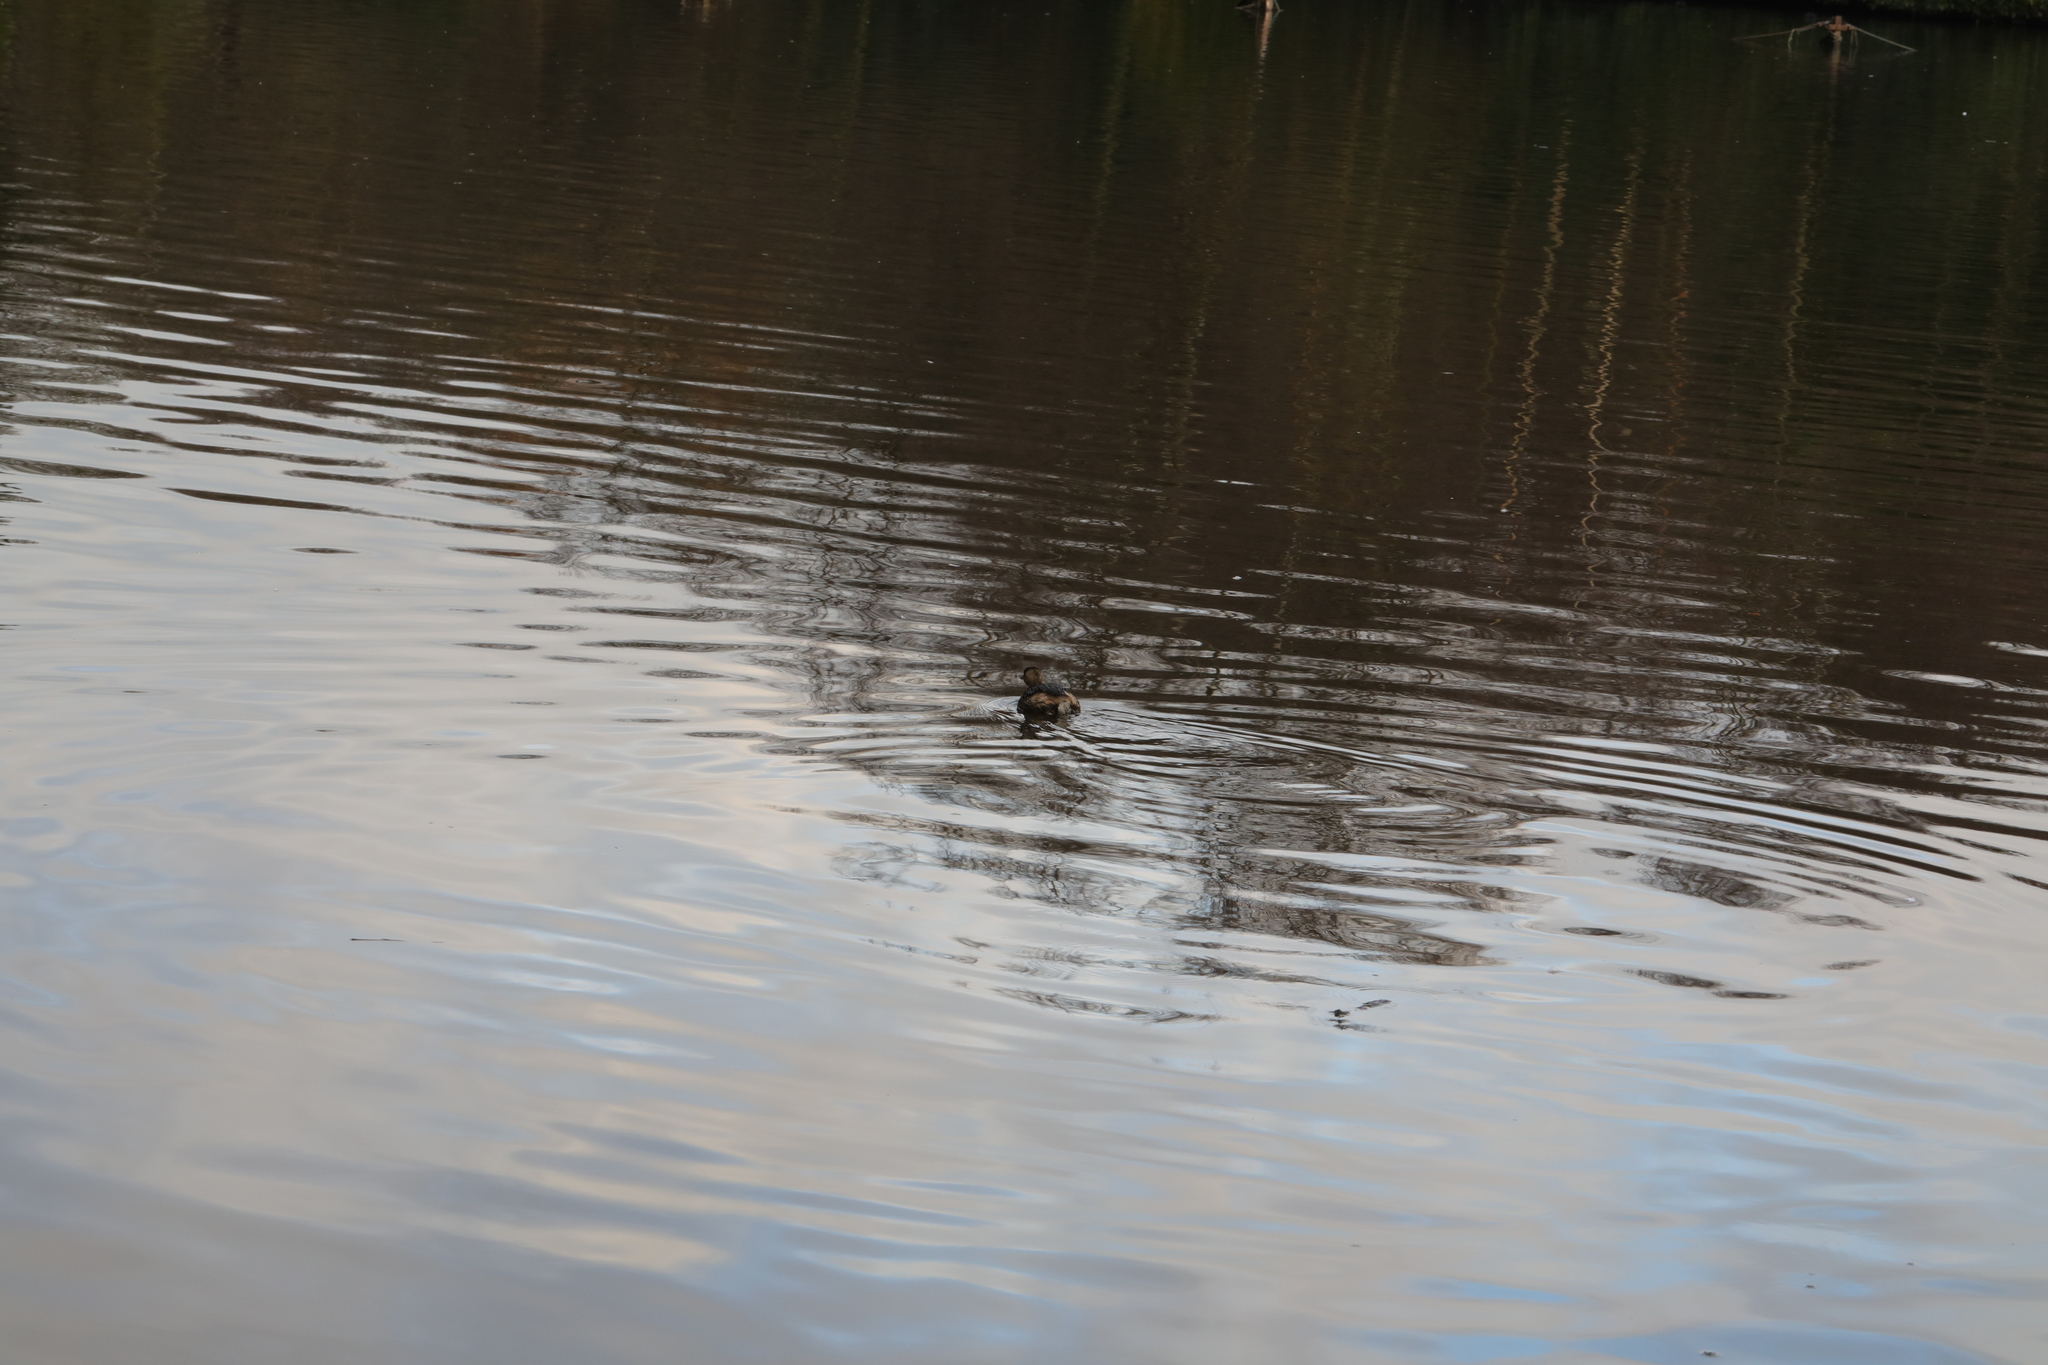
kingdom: Animalia
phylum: Chordata
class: Aves
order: Podicipediformes
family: Podicipedidae
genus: Tachybaptus
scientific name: Tachybaptus ruficollis
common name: Little grebe
